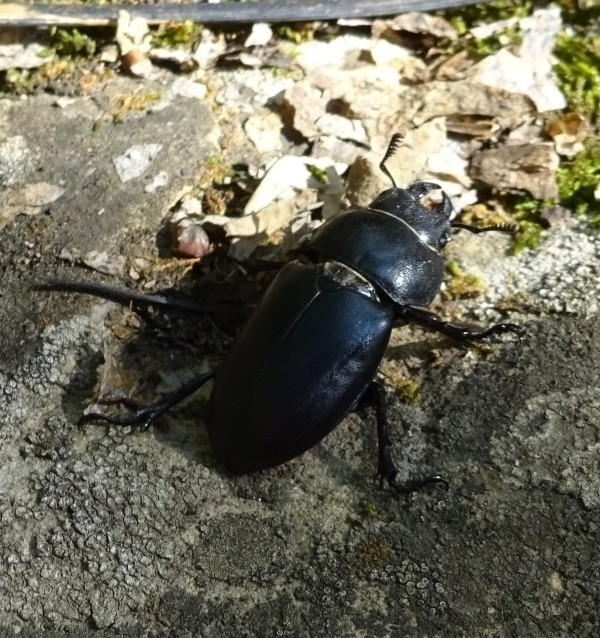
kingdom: Animalia
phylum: Arthropoda
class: Insecta
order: Coleoptera
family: Lucanidae
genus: Lucanus
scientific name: Lucanus ibericus
